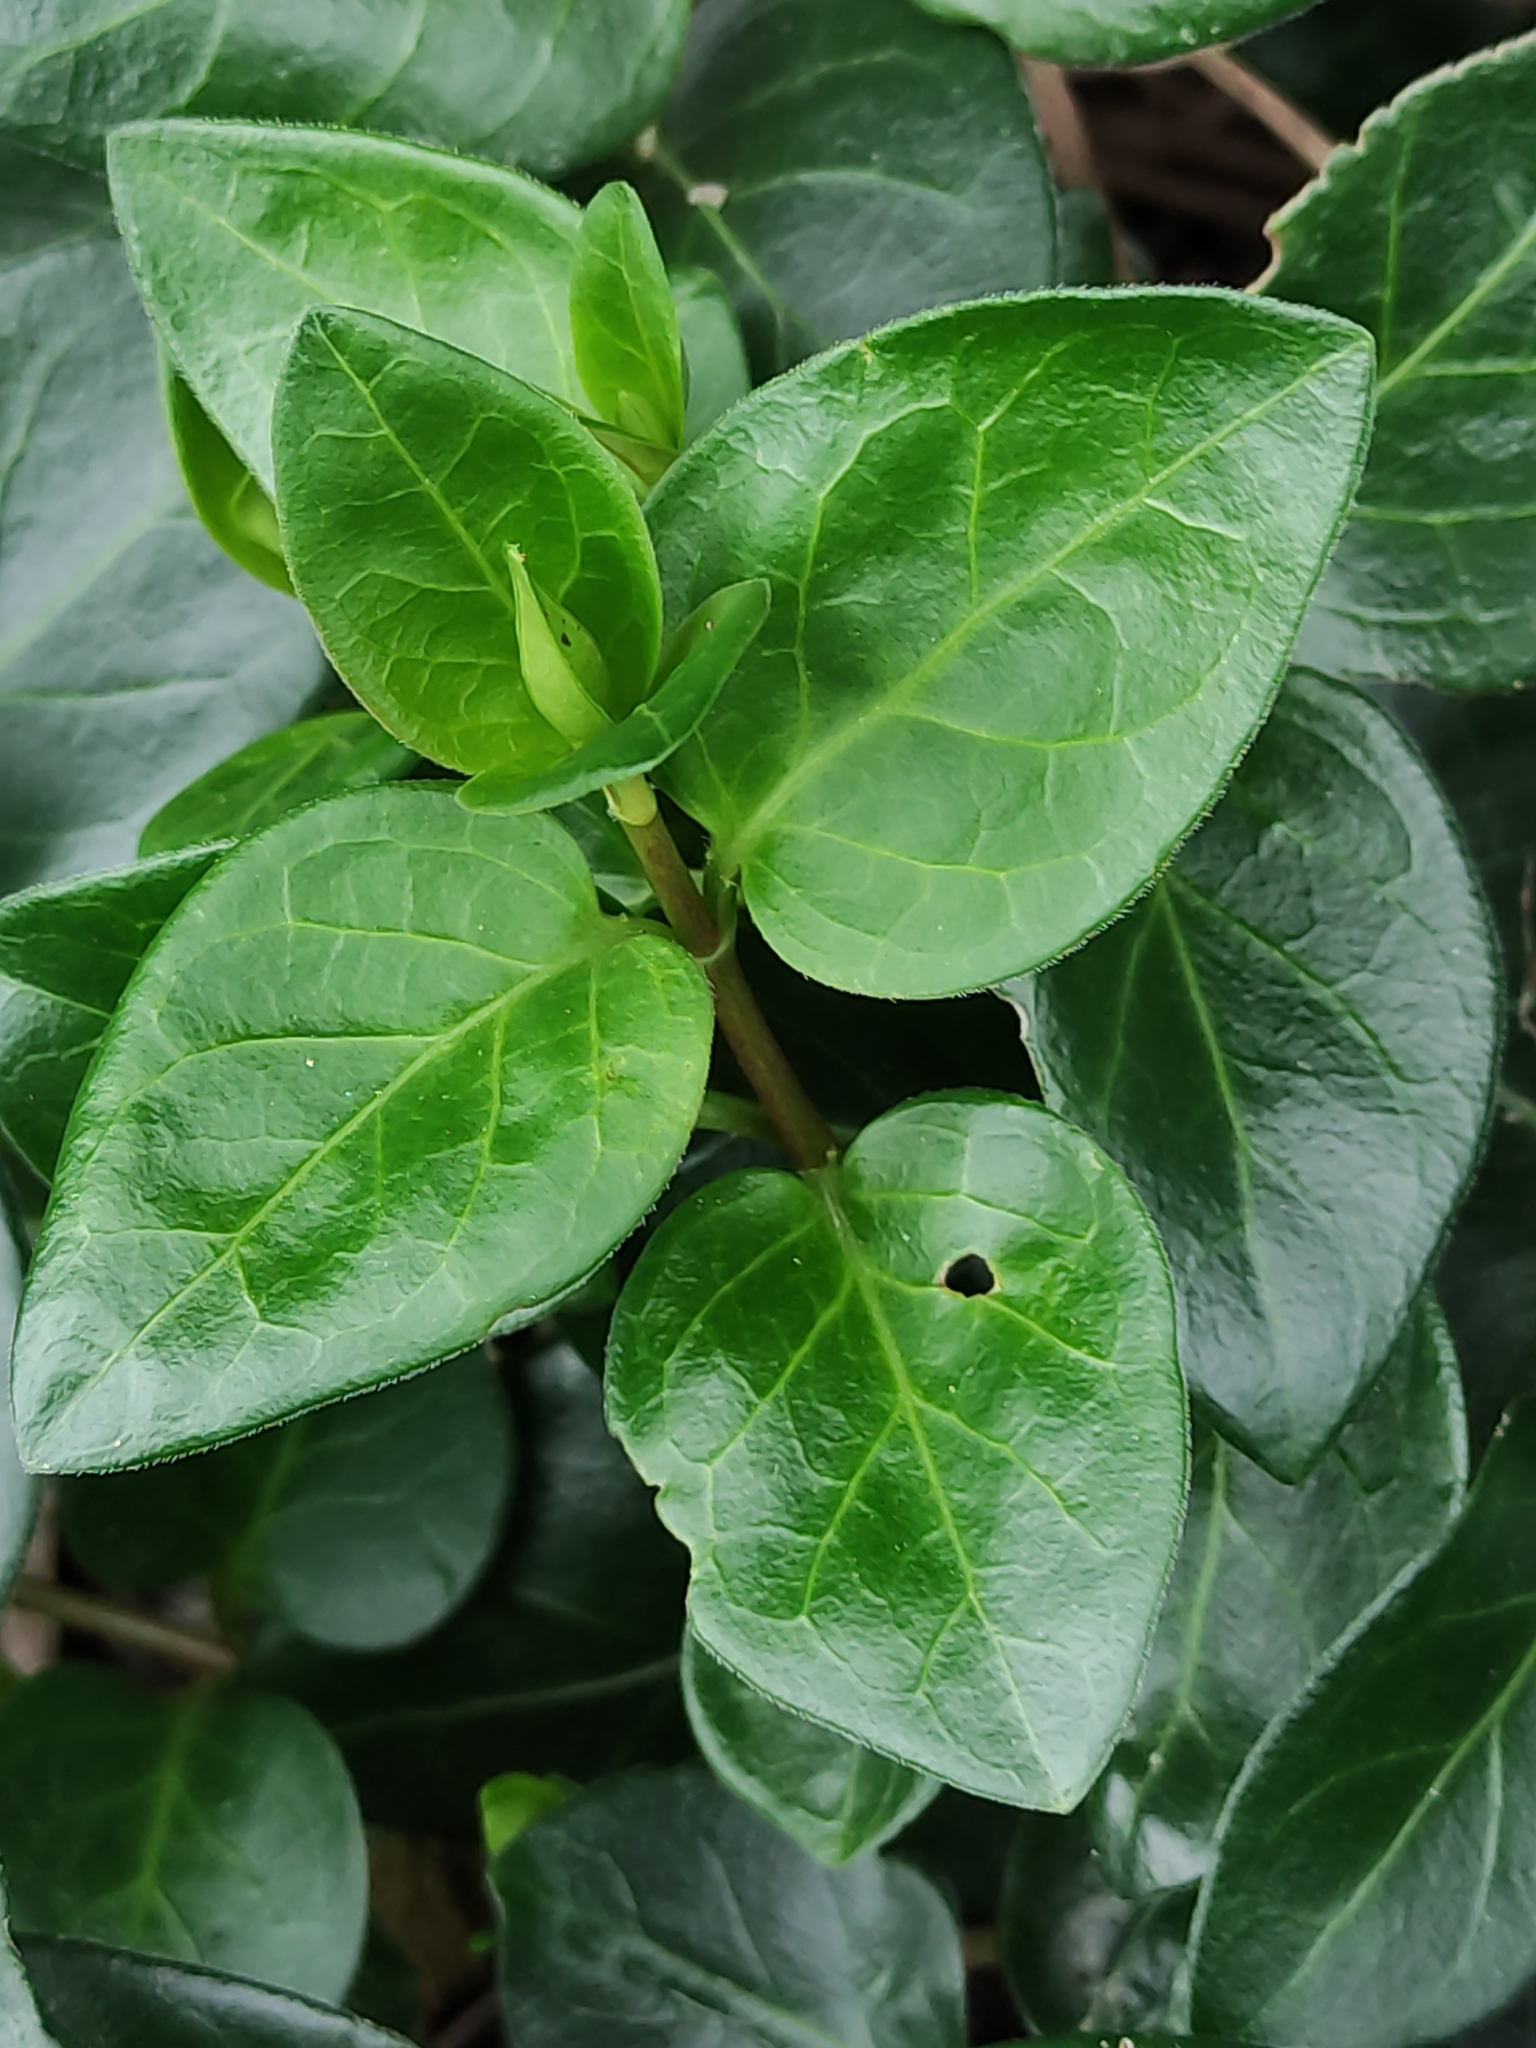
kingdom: Plantae
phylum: Tracheophyta
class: Magnoliopsida
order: Gentianales
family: Apocynaceae
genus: Vinca
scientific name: Vinca major
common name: Greater periwinkle
